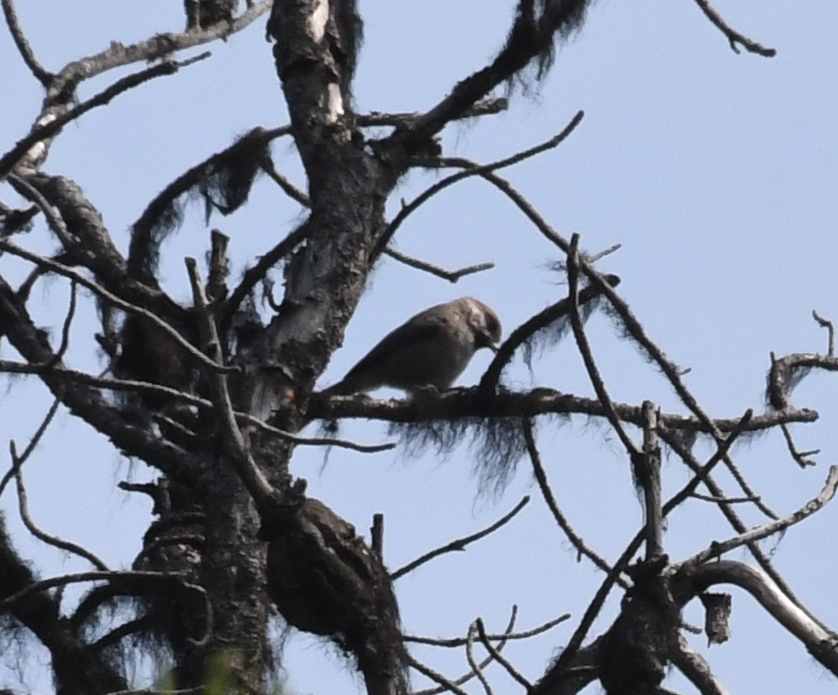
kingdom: Animalia
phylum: Chordata
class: Aves
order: Passeriformes
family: Paridae
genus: Poecile
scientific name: Poecile hudsonicus
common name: Boreal chickadee
